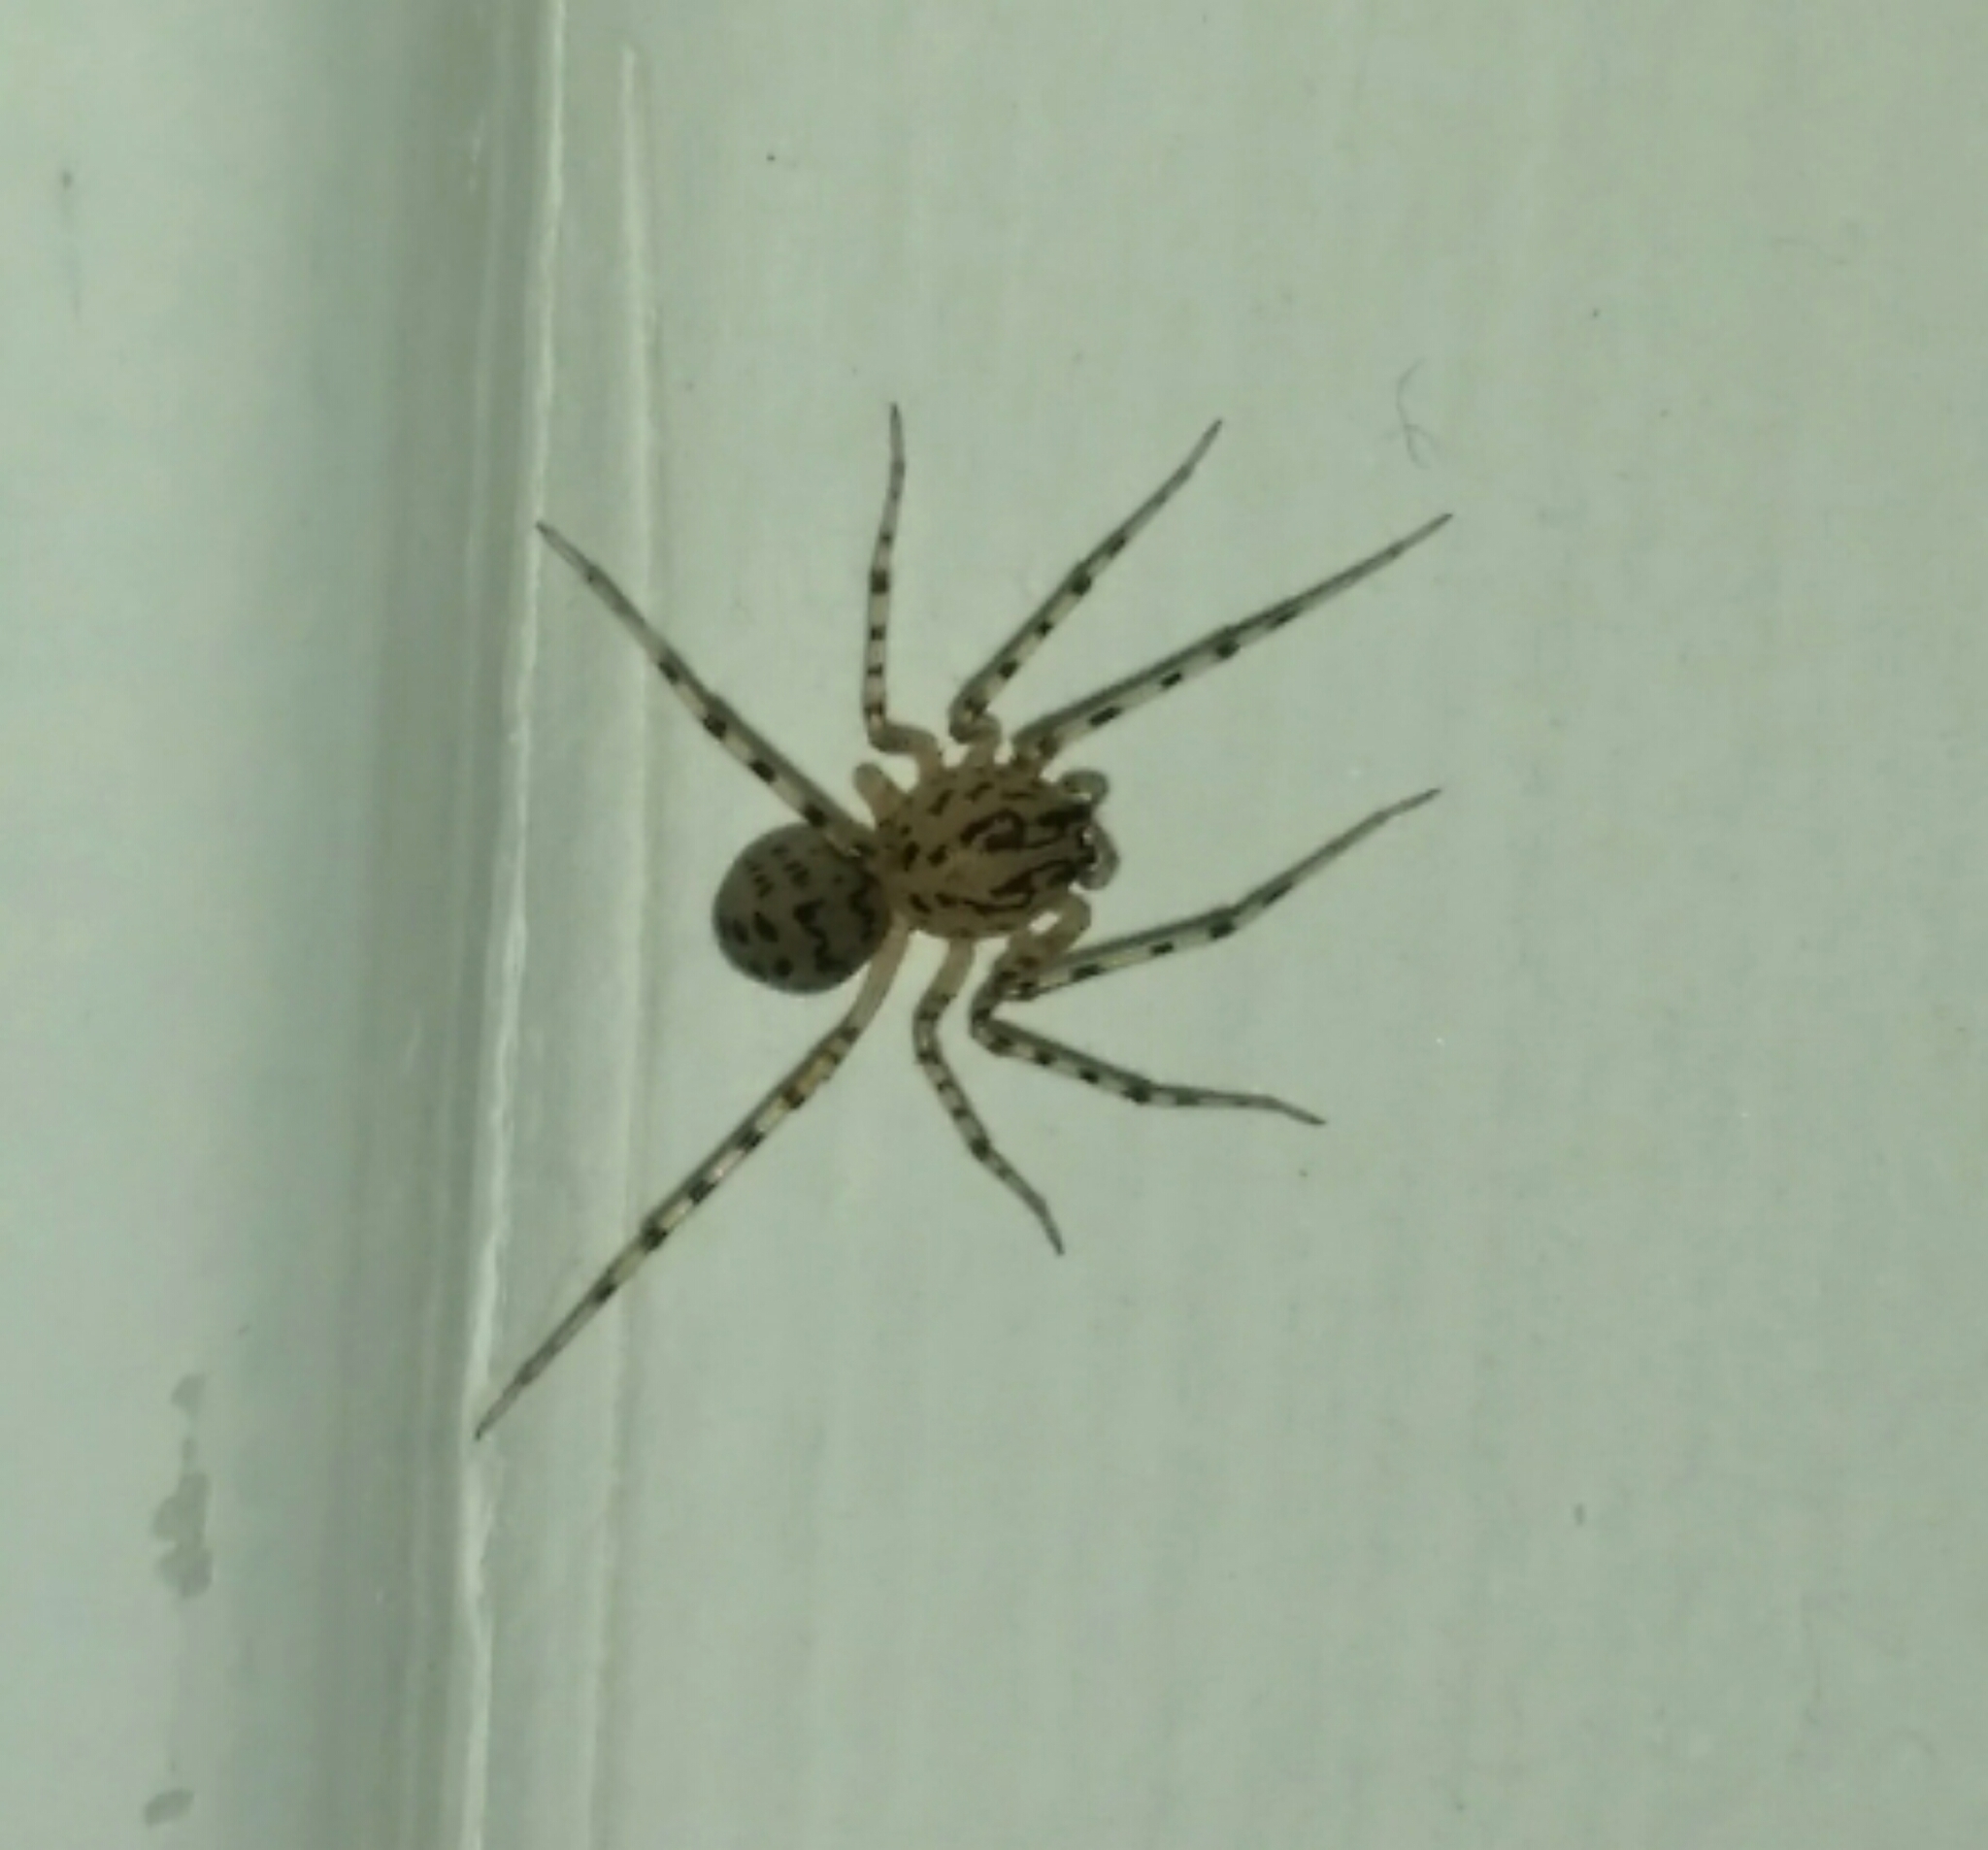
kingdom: Animalia
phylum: Arthropoda
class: Arachnida
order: Araneae
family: Scytodidae
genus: Scytodes
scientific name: Scytodes thoracica
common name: Spitting spider
